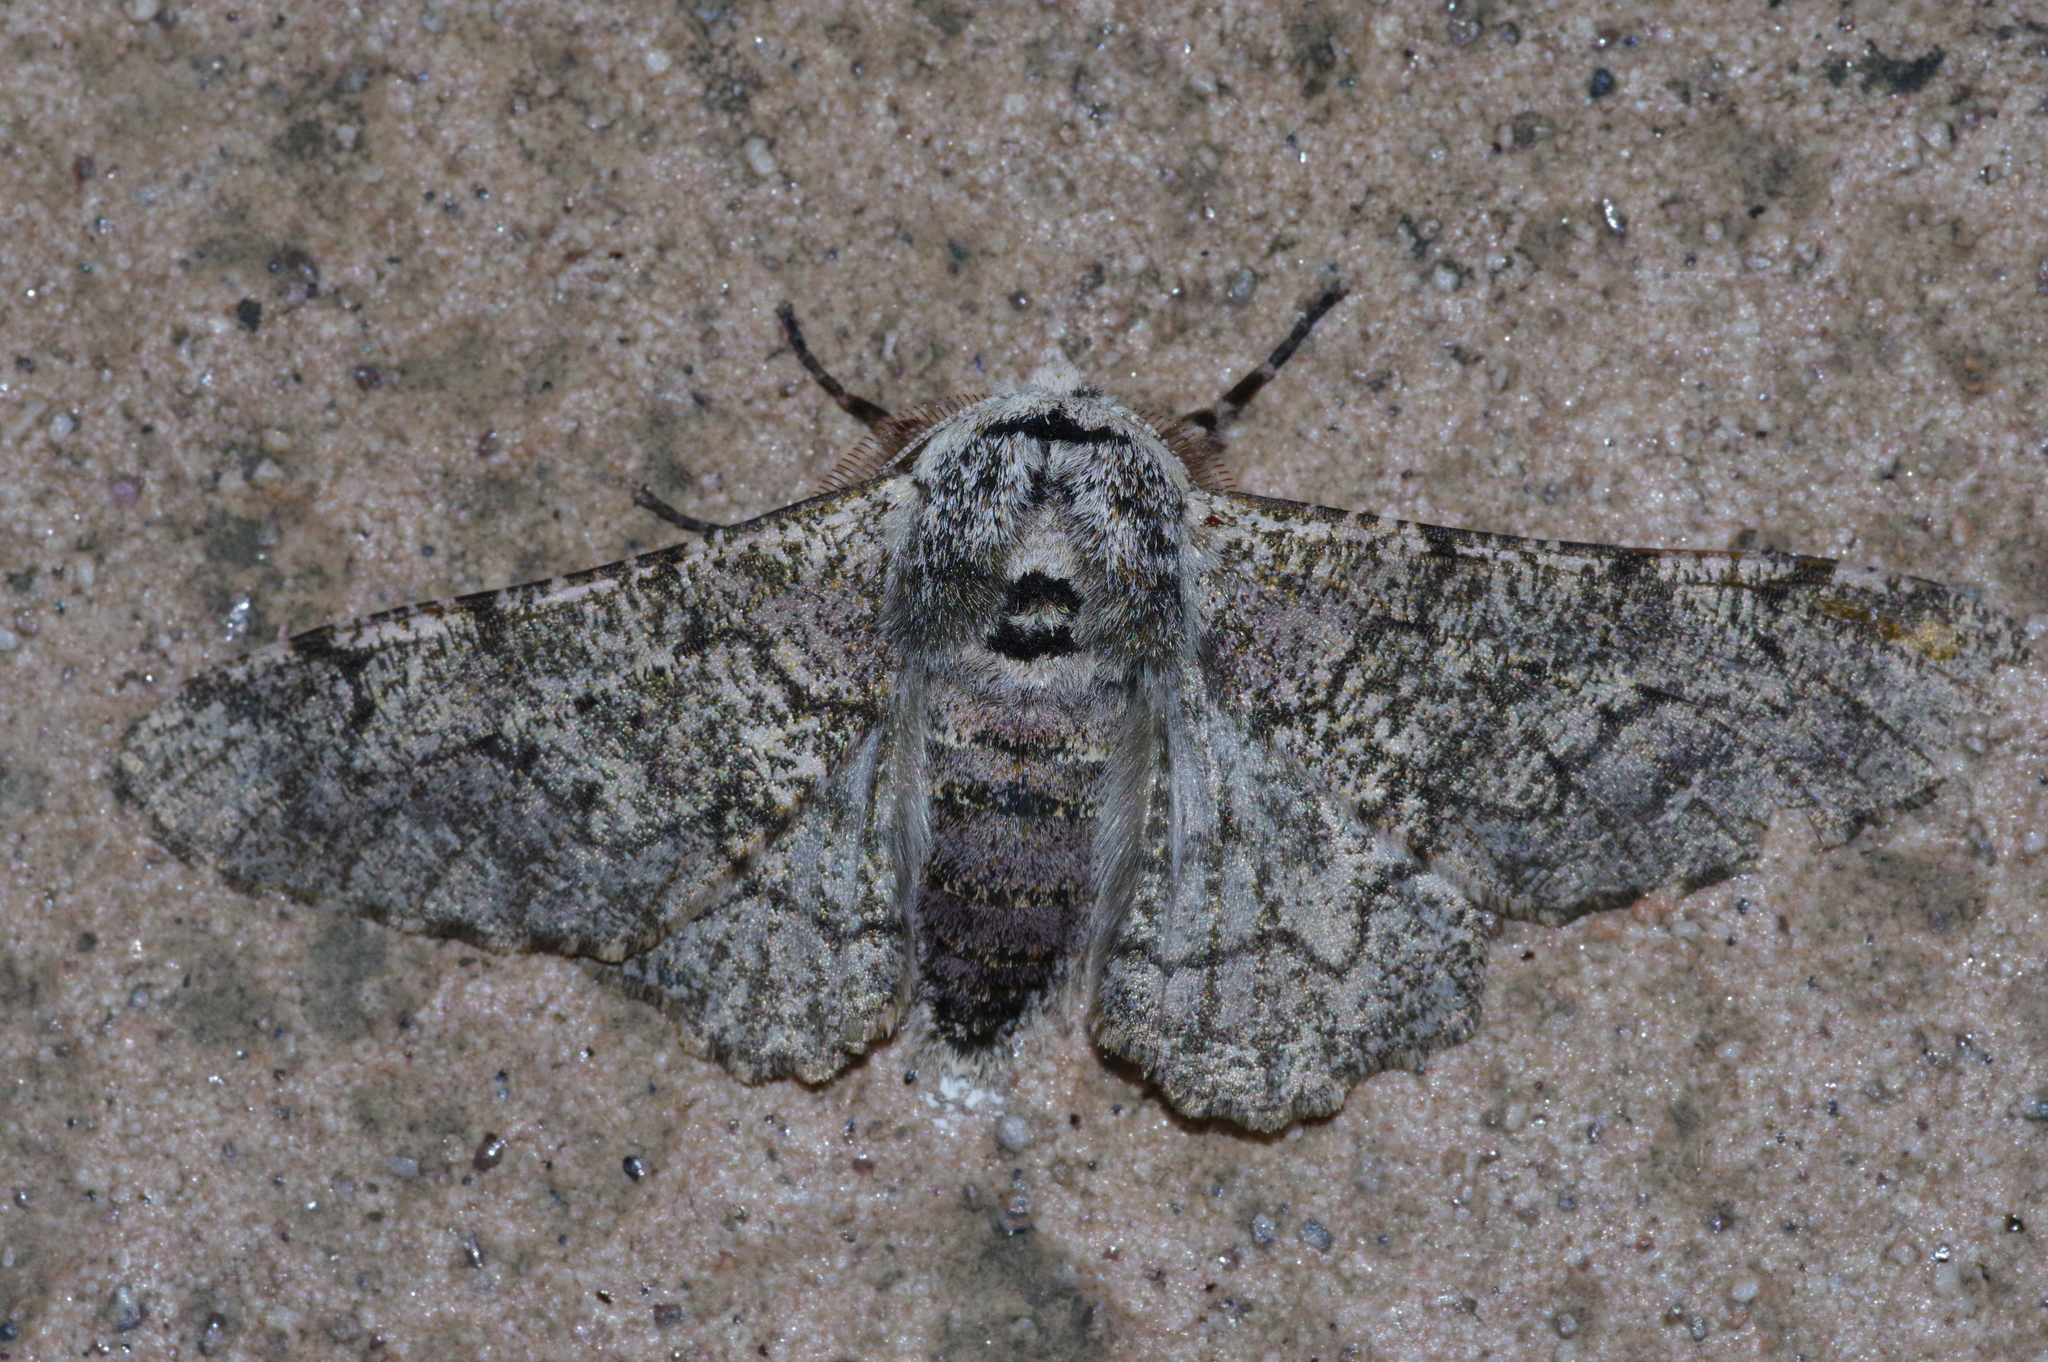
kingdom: Animalia
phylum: Arthropoda
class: Insecta
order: Lepidoptera
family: Geometridae
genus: Biston
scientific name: Biston robustum
